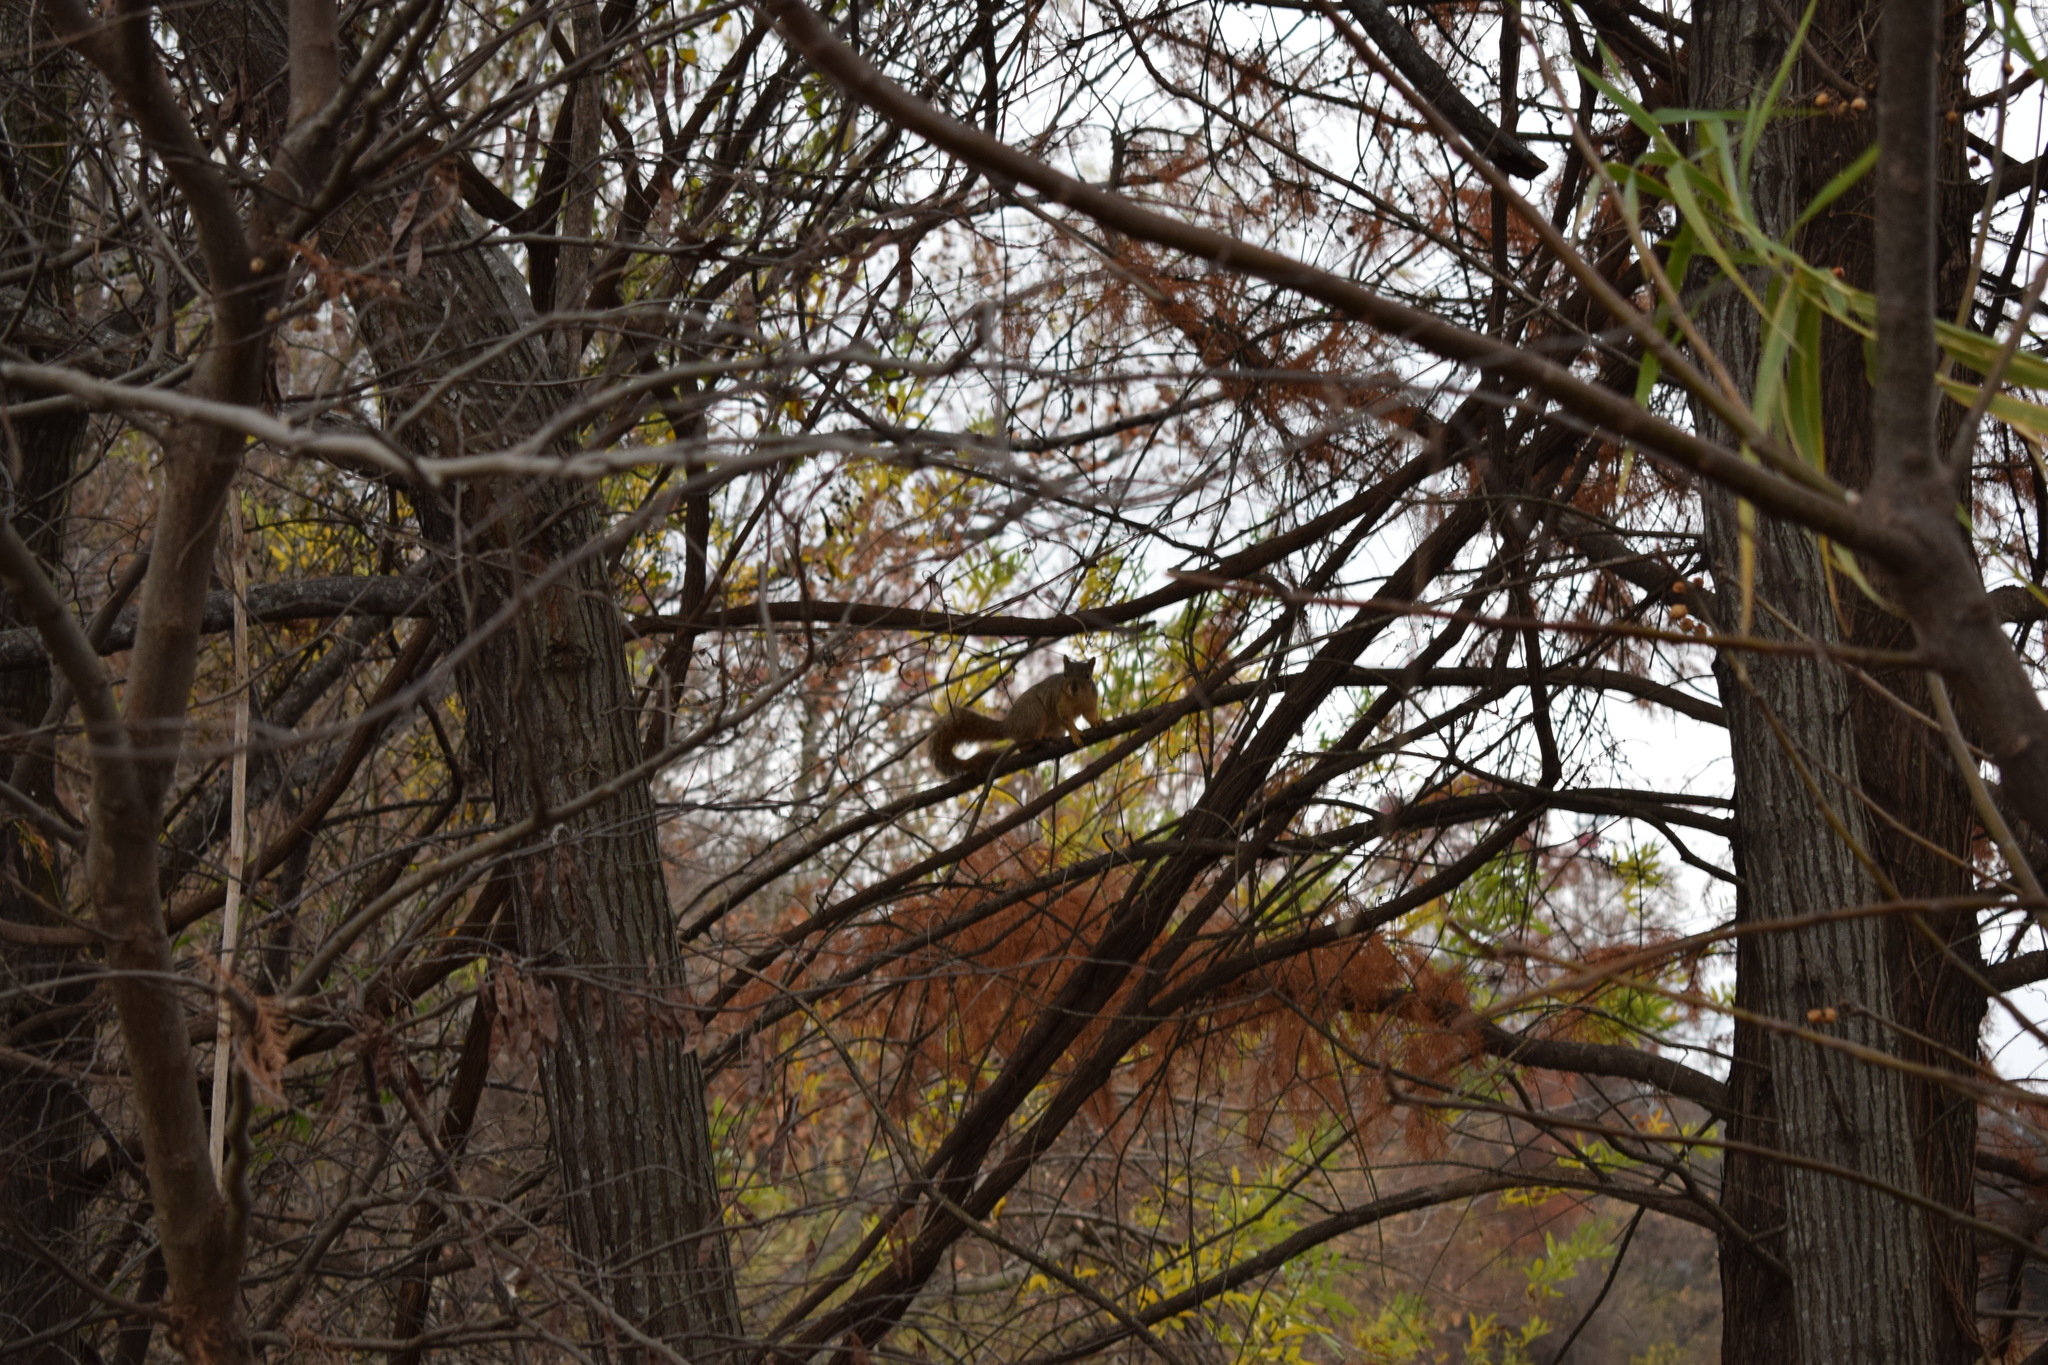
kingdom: Animalia
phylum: Chordata
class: Mammalia
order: Rodentia
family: Sciuridae
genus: Sciurus
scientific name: Sciurus niger
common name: Fox squirrel
